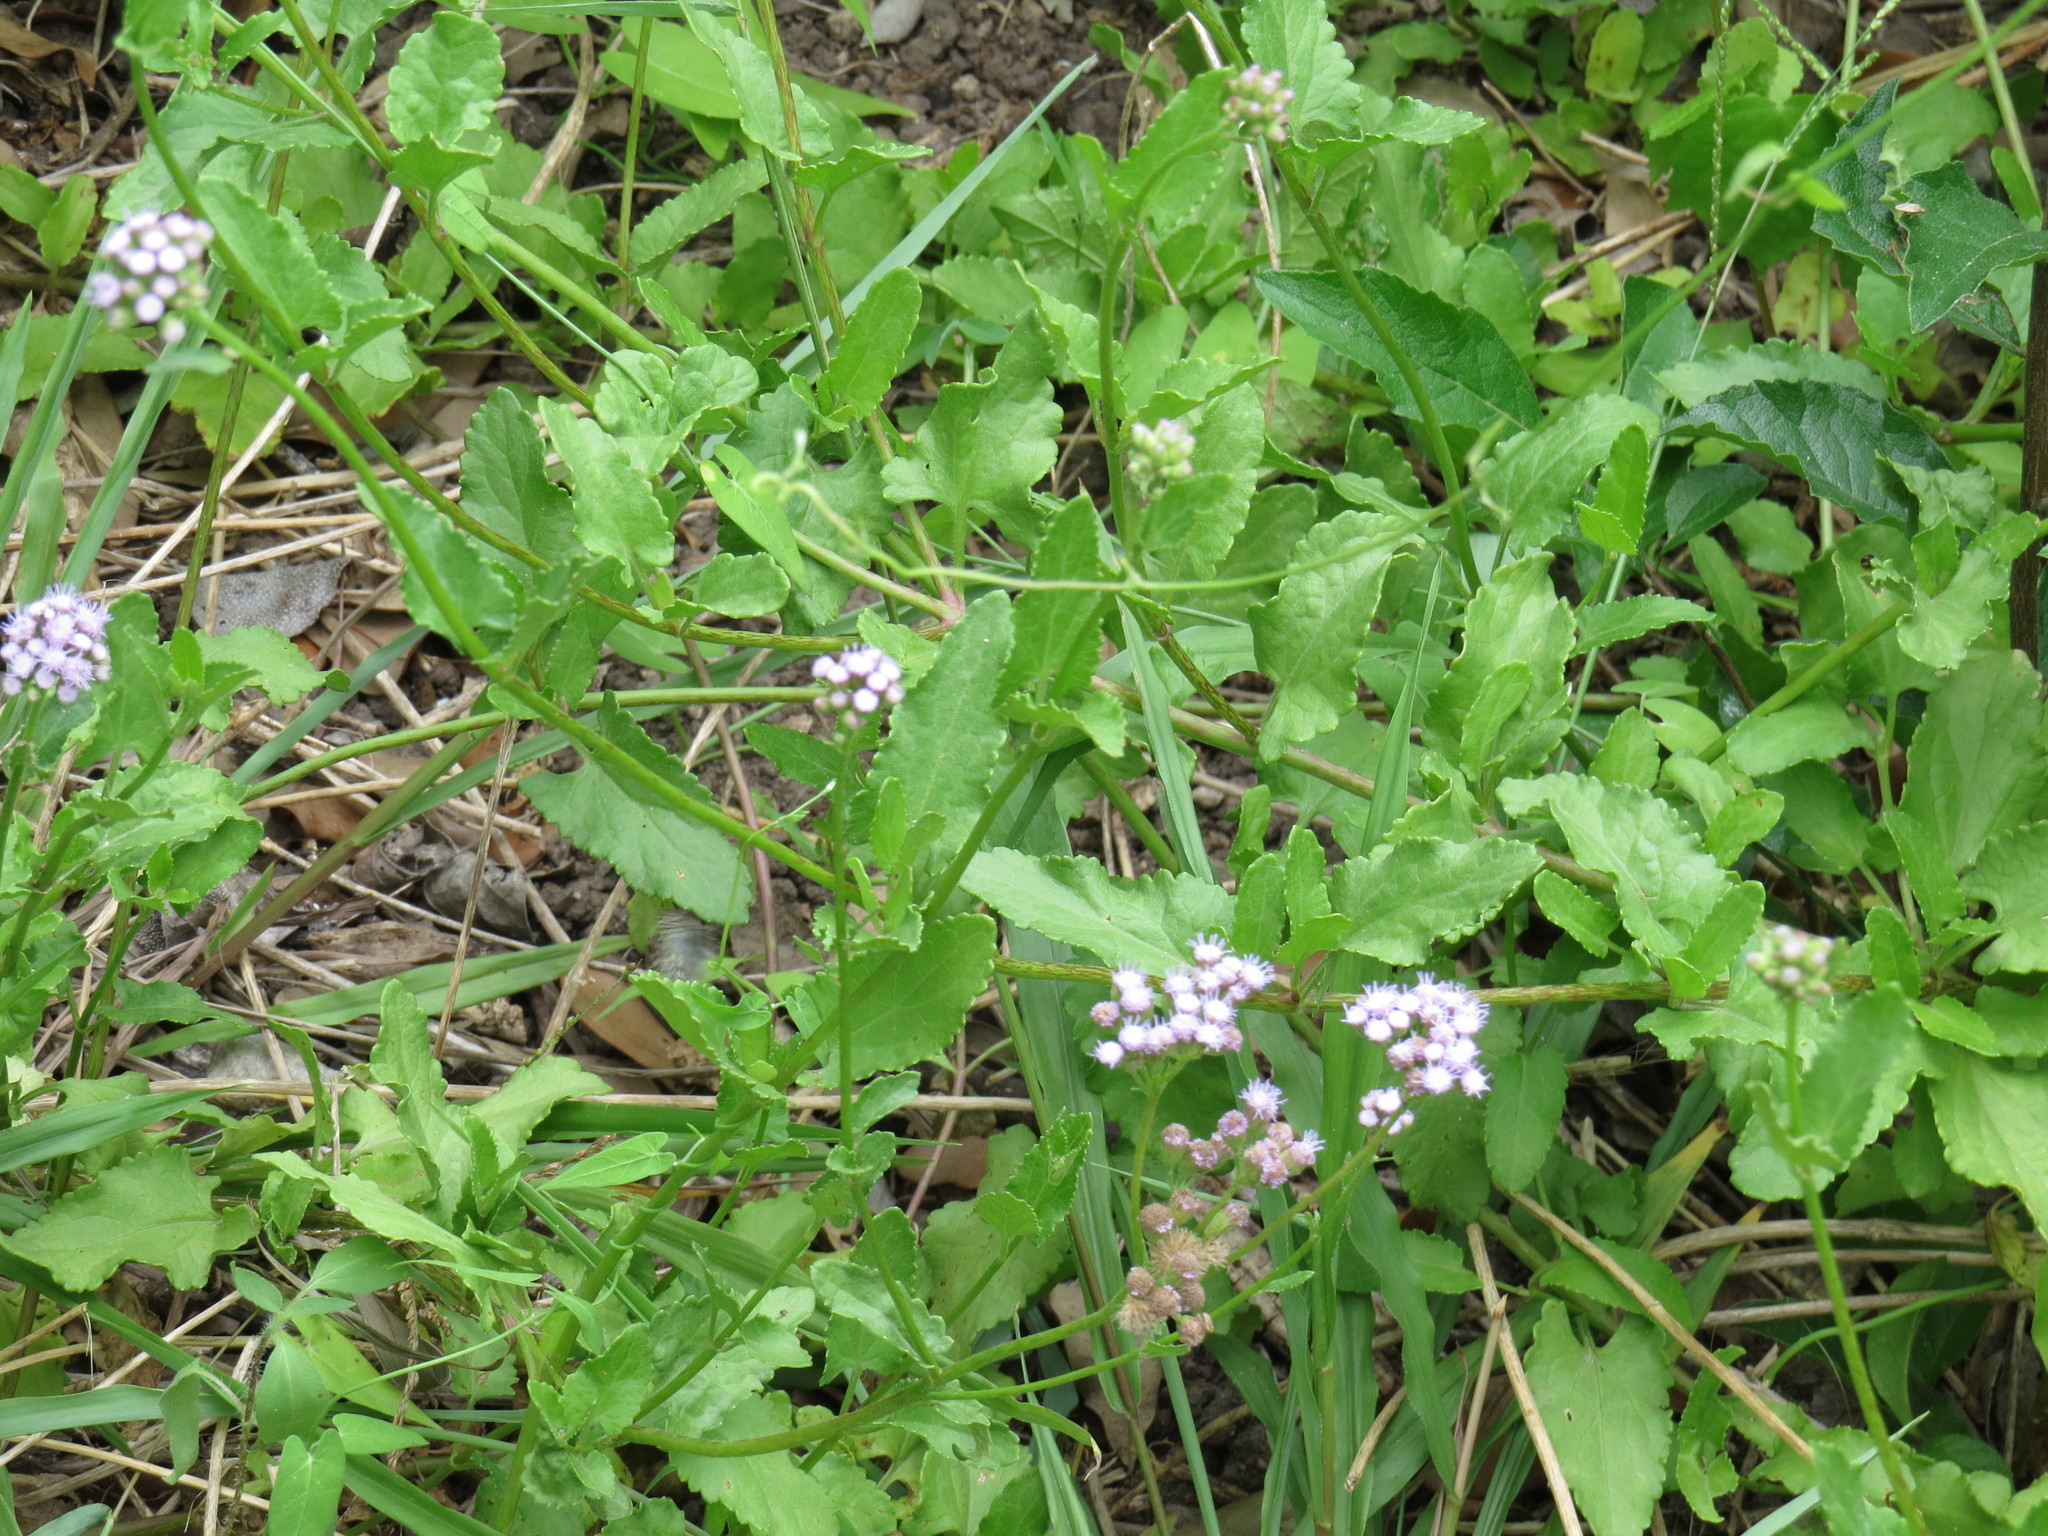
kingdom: Plantae
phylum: Tracheophyta
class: Magnoliopsida
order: Asterales
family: Asteraceae
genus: Conoclinium
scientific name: Conoclinium betonicifolium
